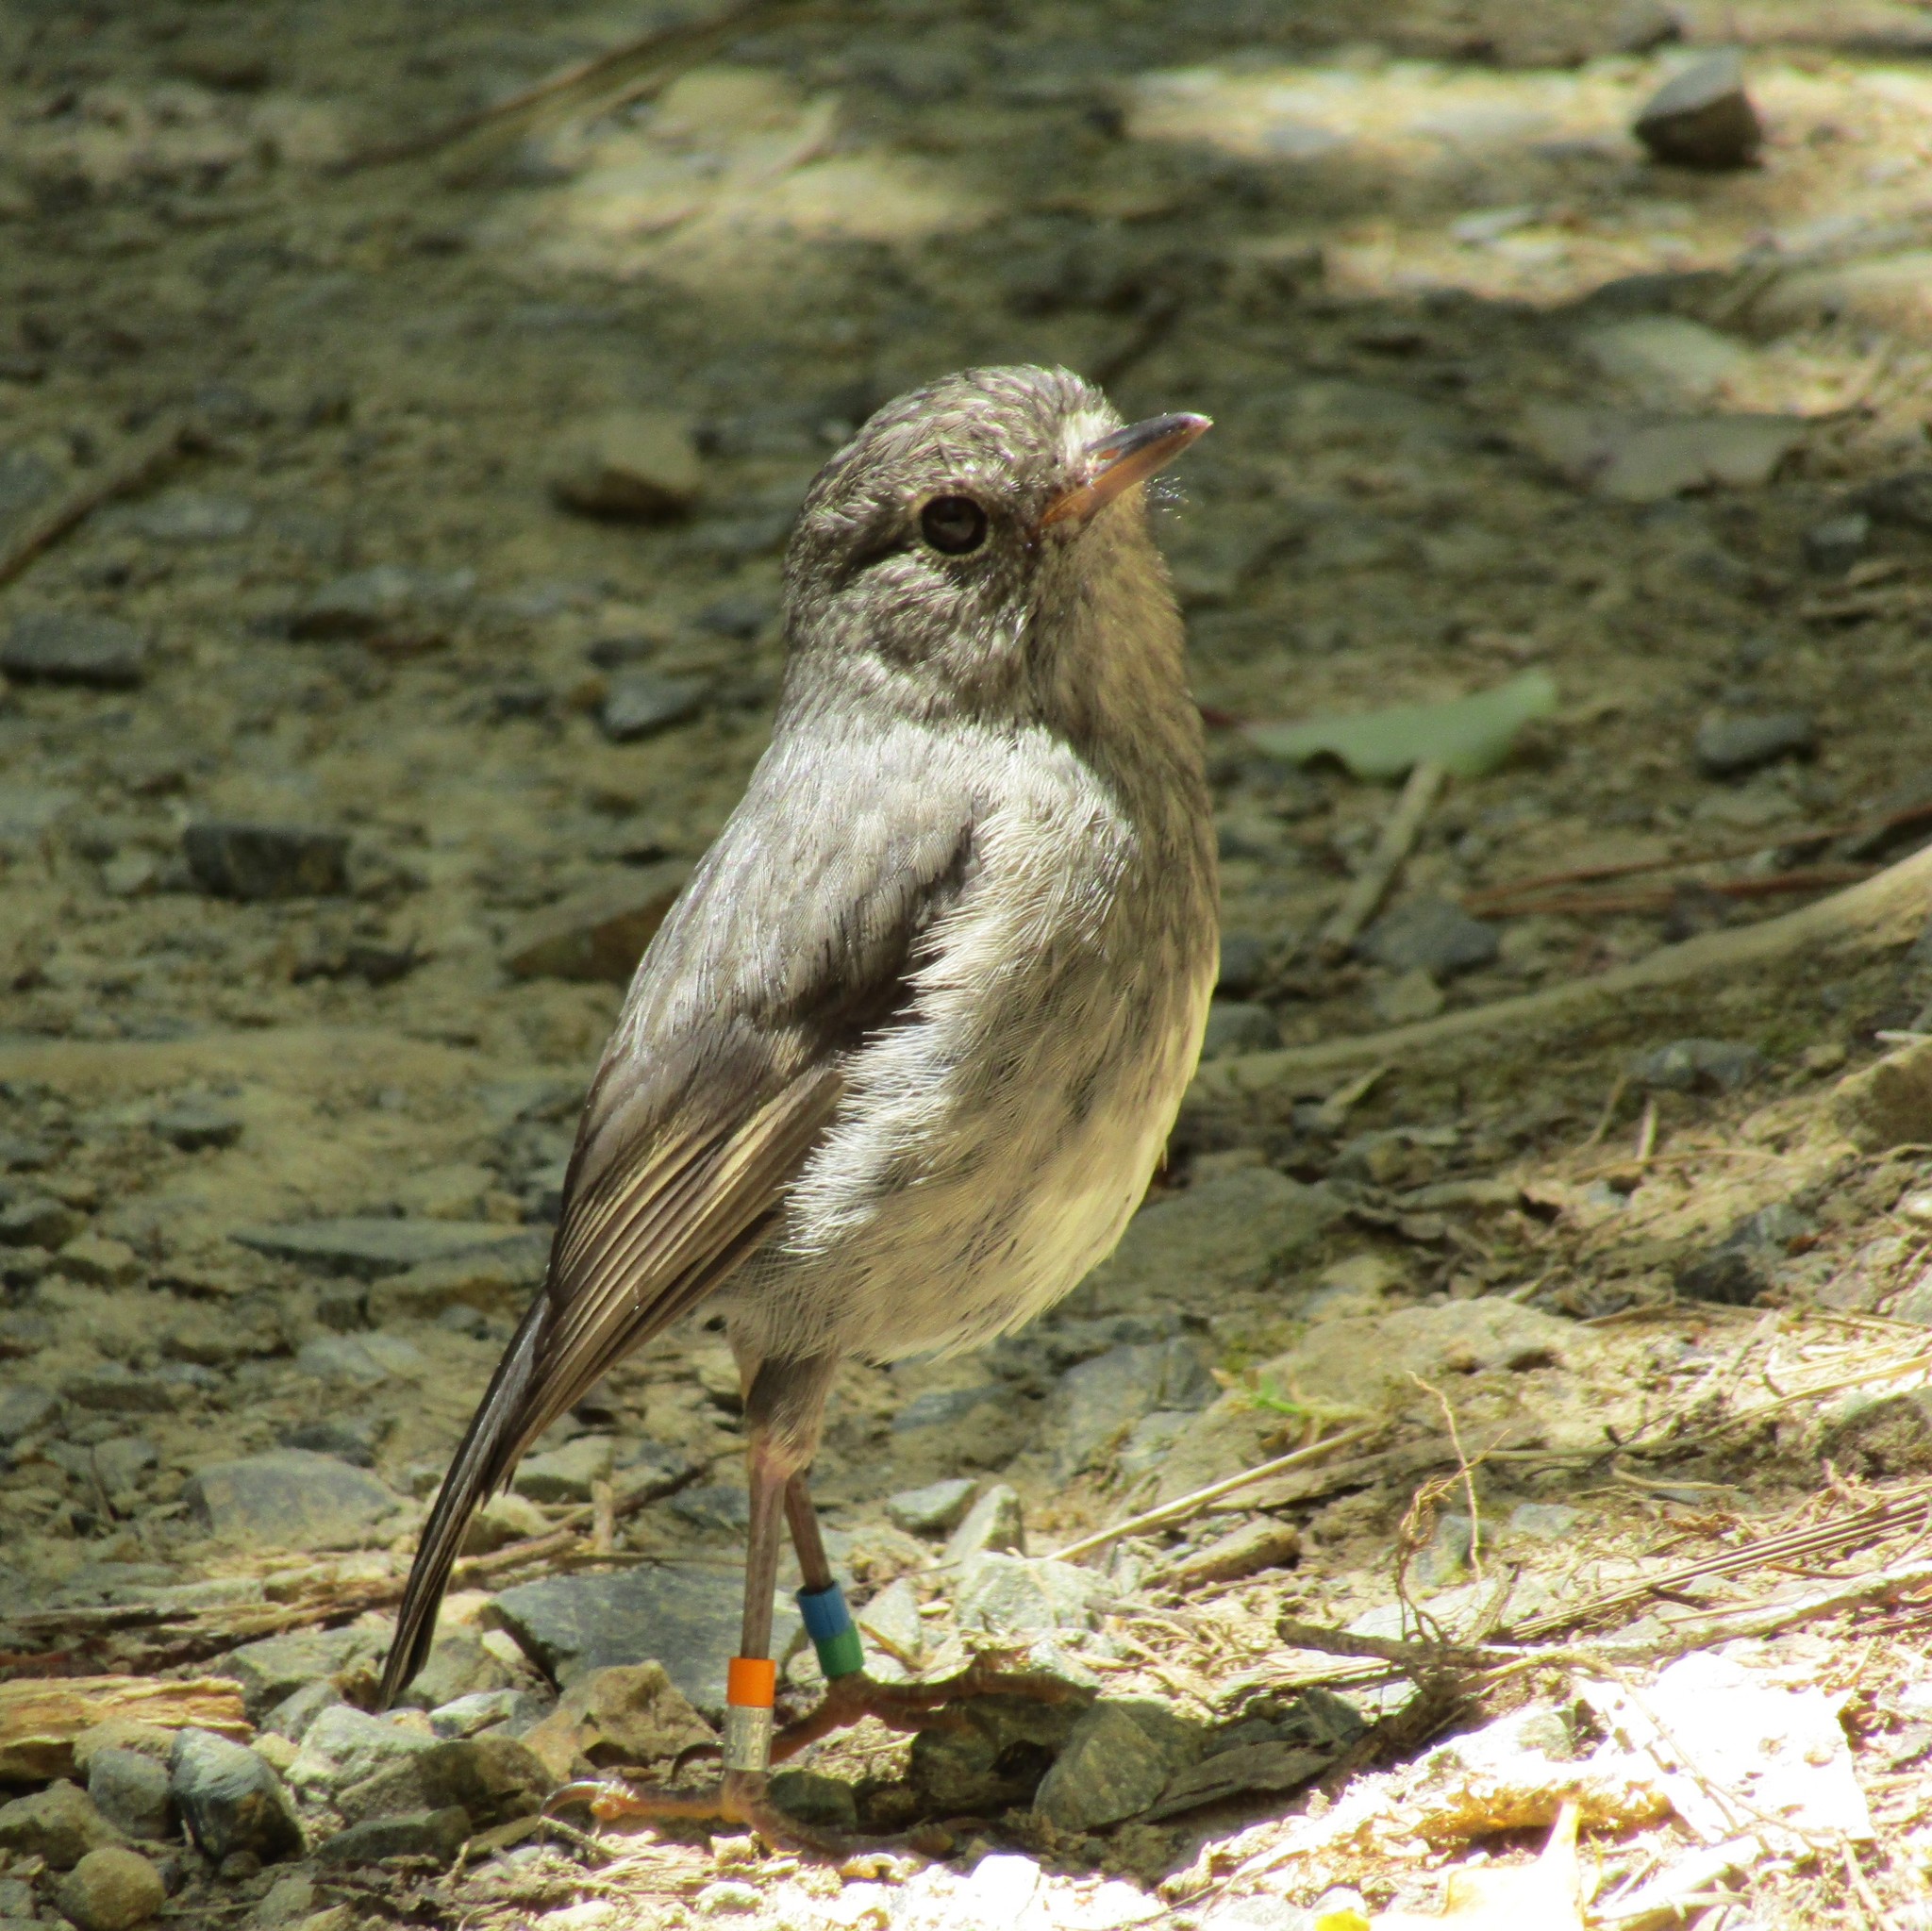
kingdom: Animalia
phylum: Chordata
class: Aves
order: Passeriformes
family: Petroicidae
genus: Petroica
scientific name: Petroica australis
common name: New zealand robin
